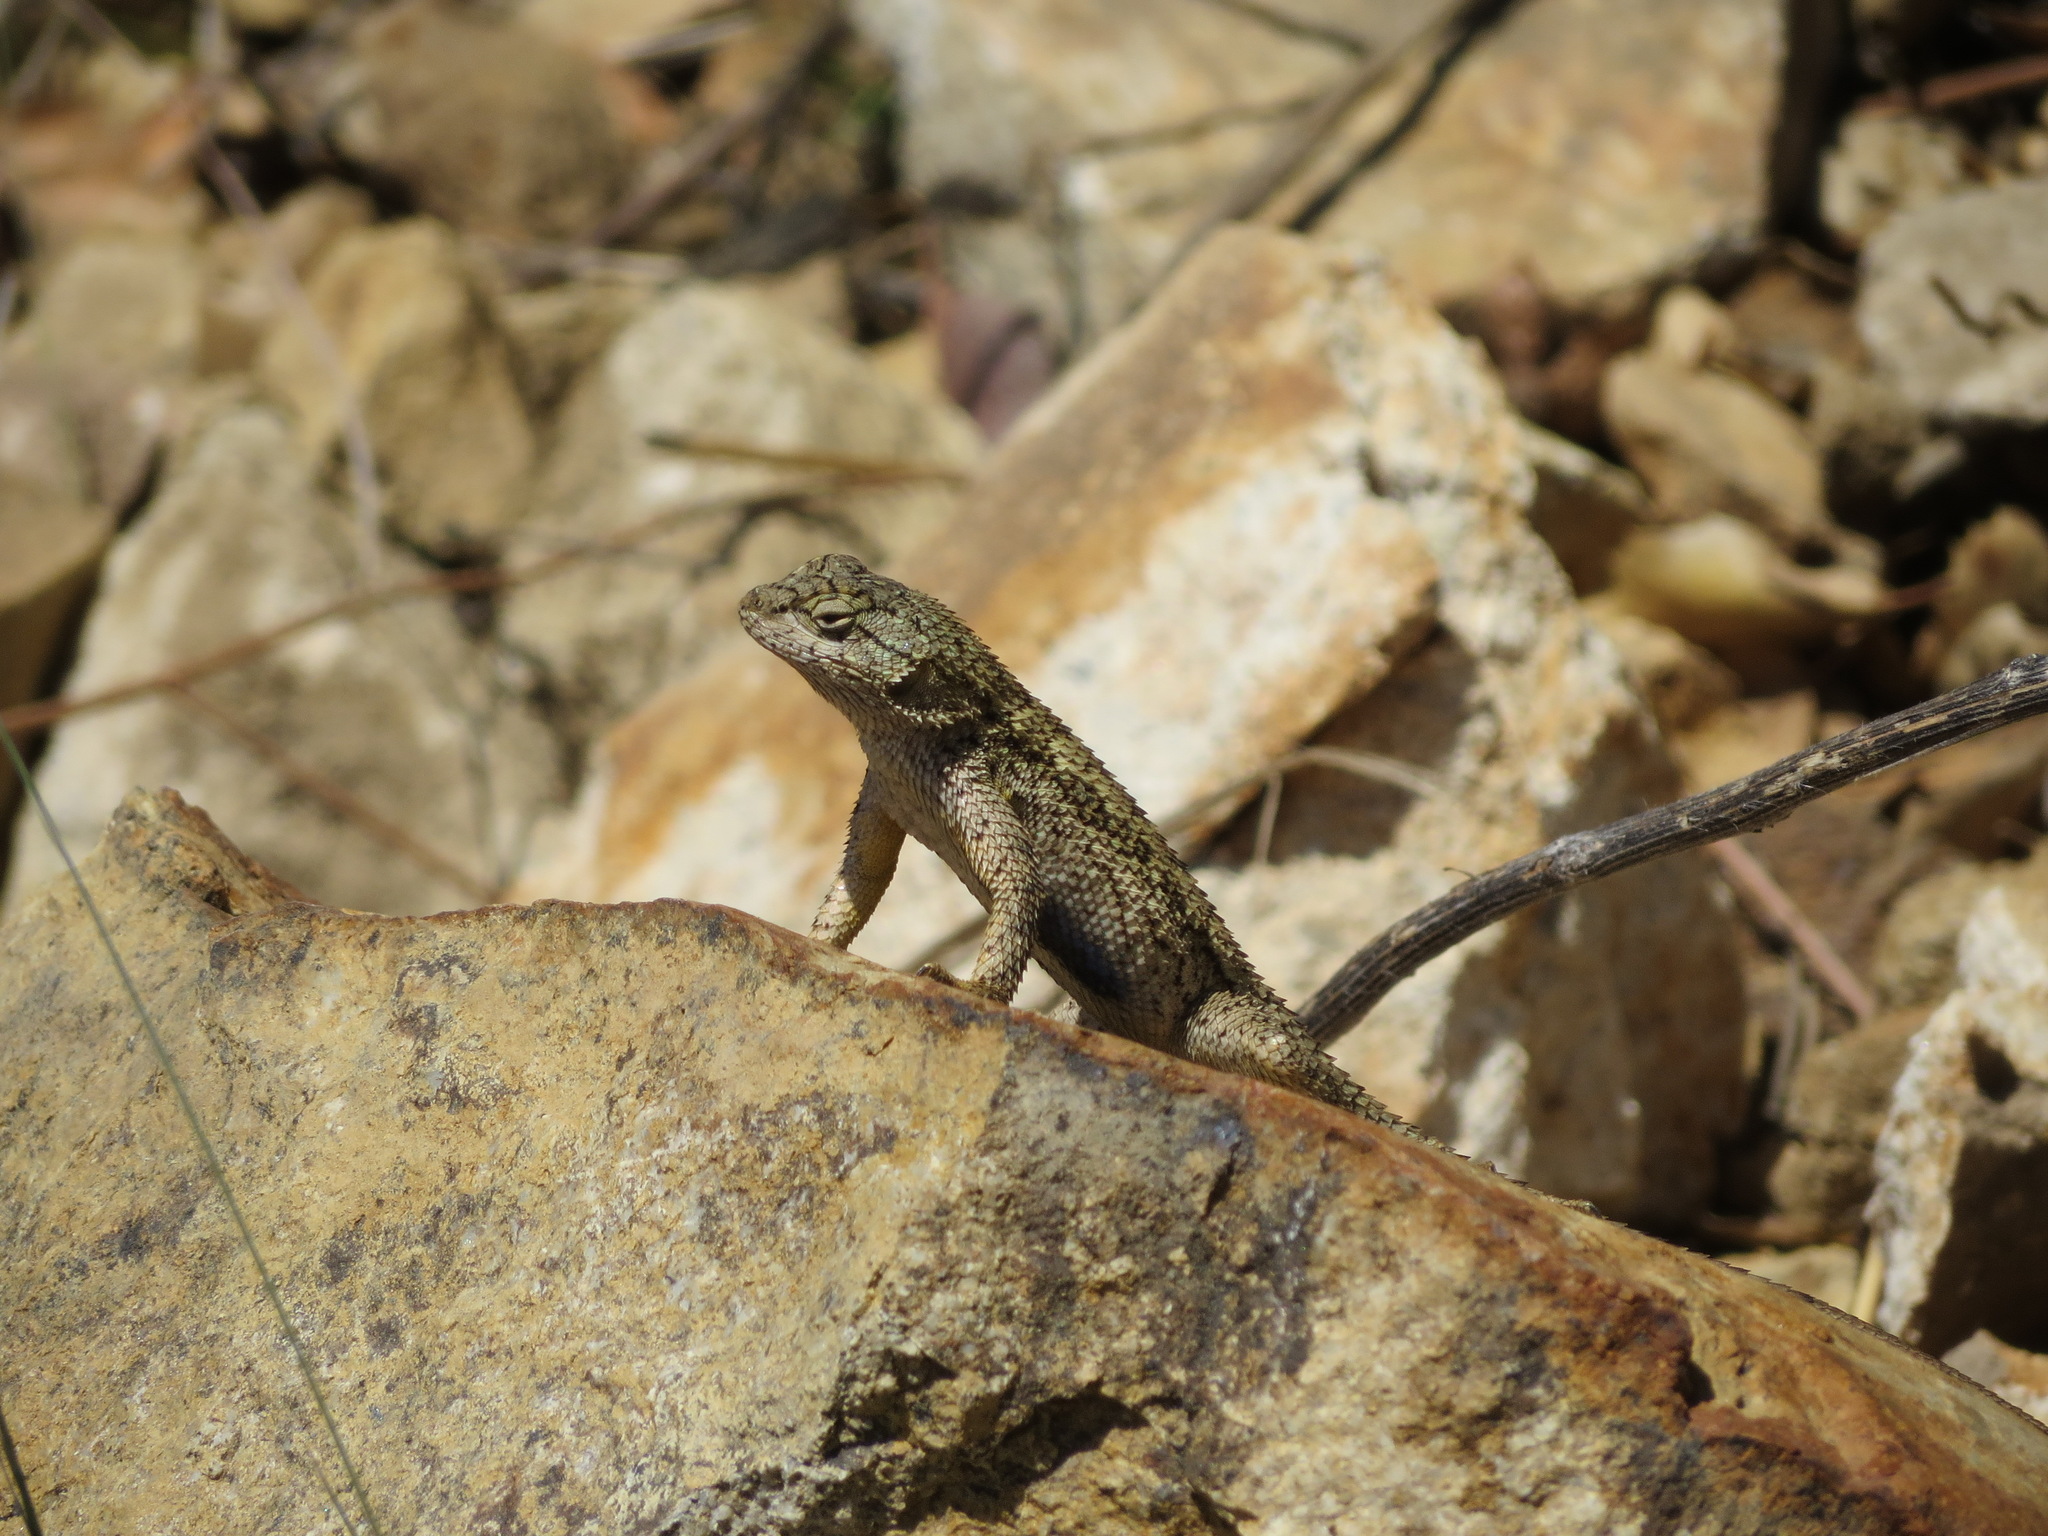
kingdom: Animalia
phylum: Chordata
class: Squamata
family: Phrynosomatidae
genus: Sceloporus
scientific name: Sceloporus occidentalis
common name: Western fence lizard
